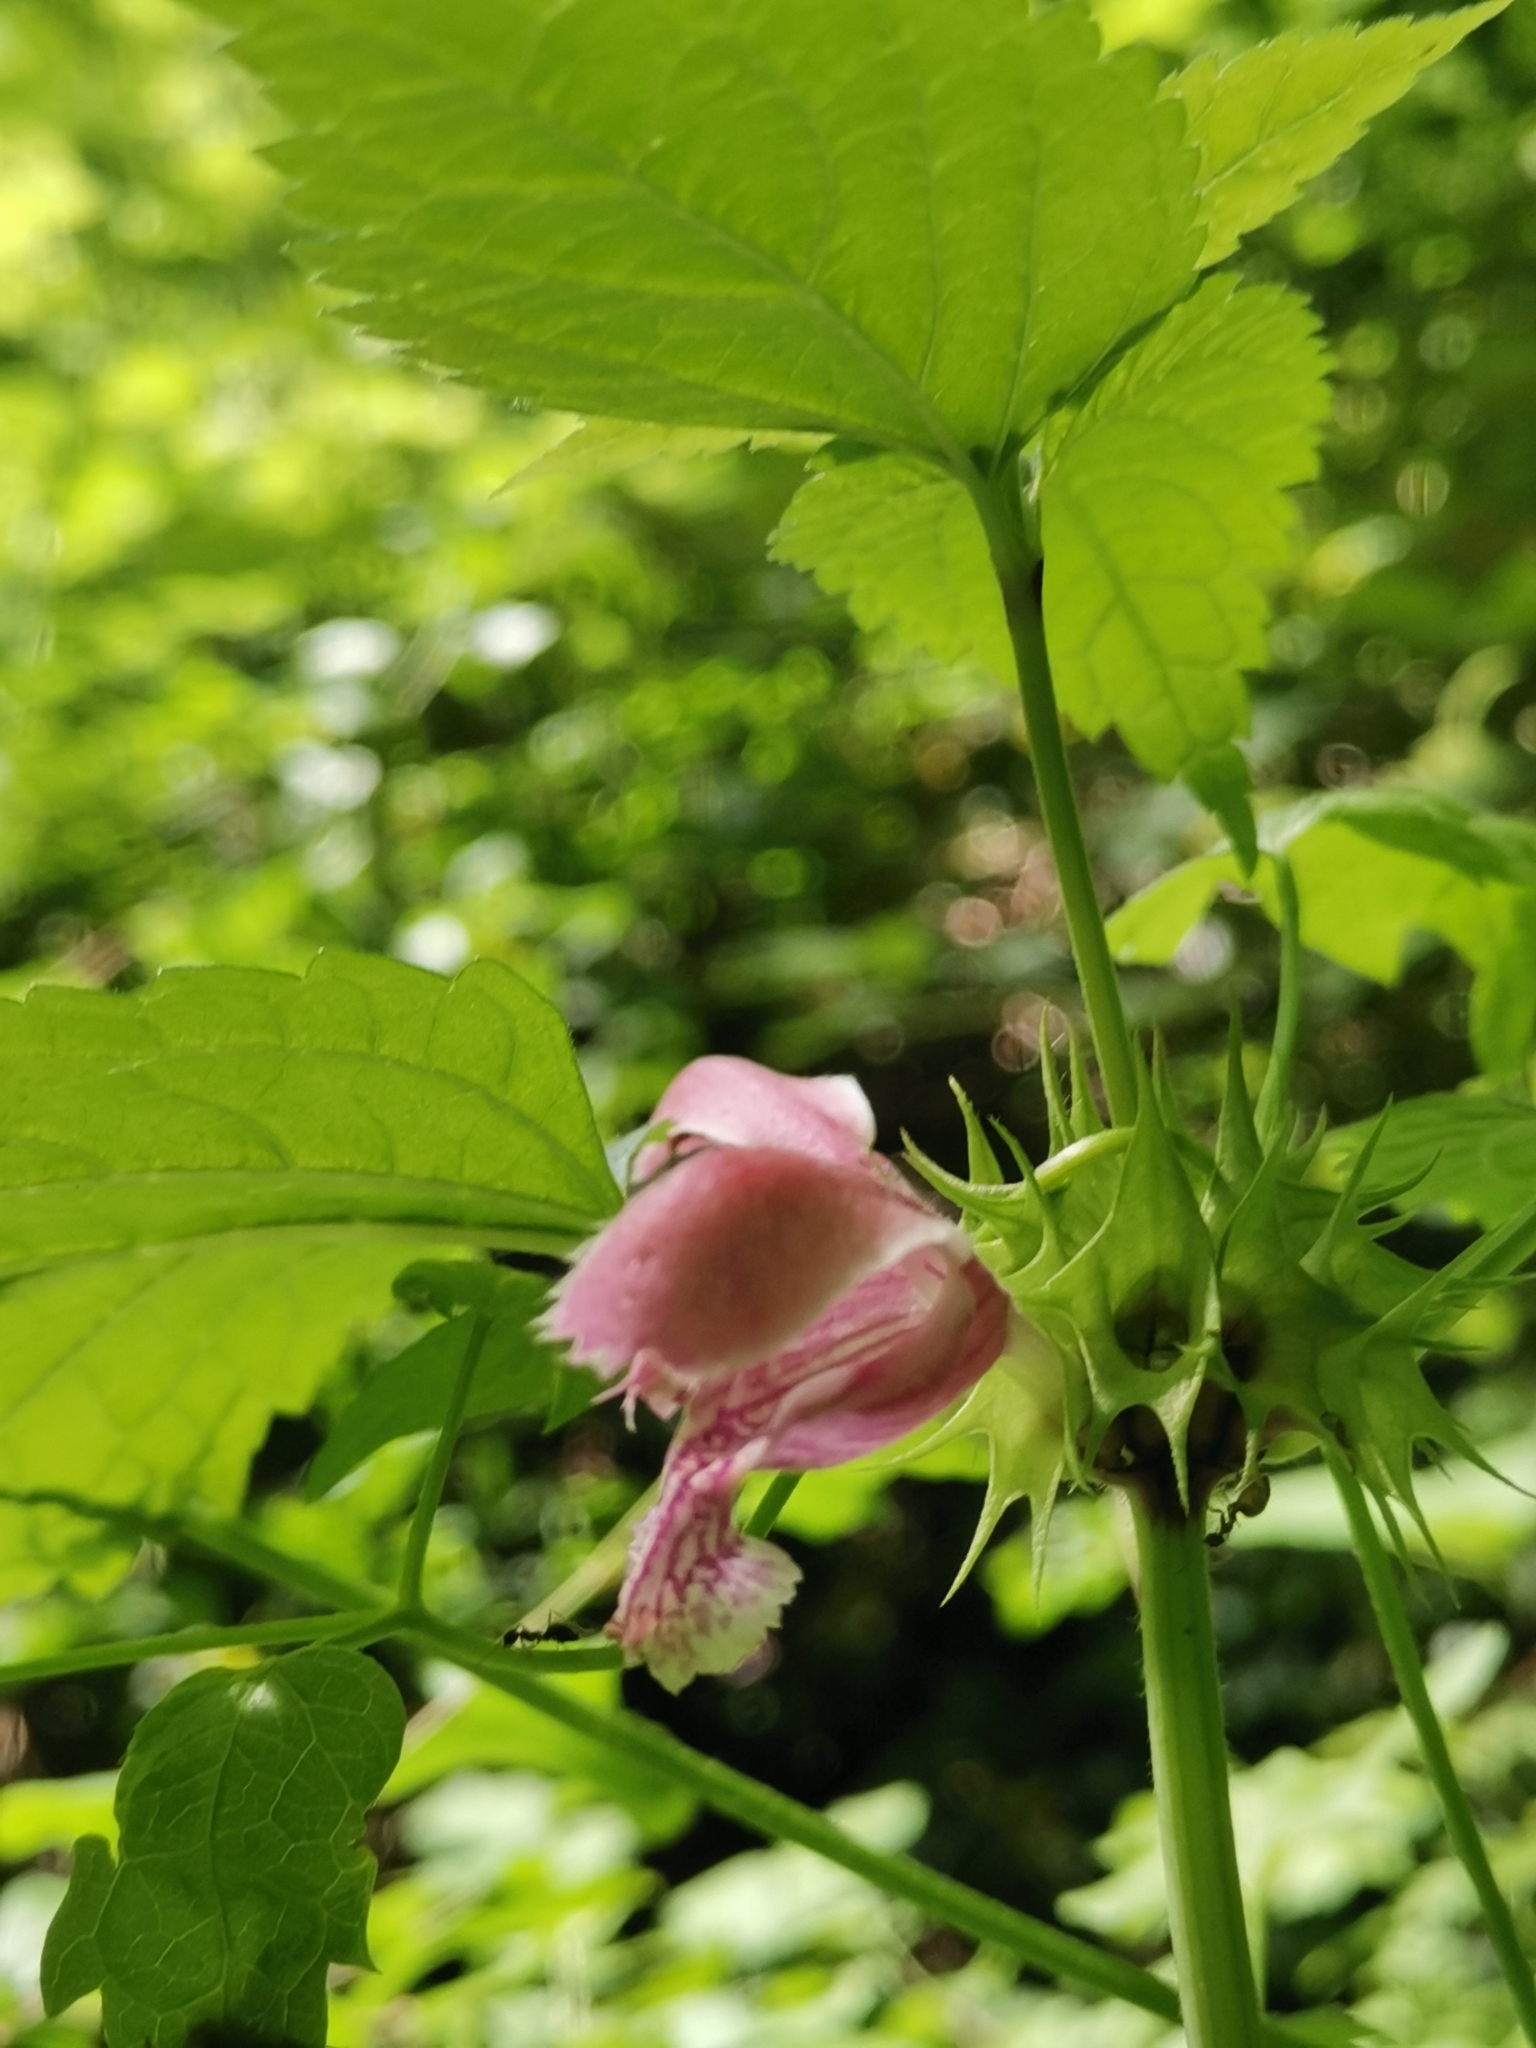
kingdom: Plantae
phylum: Tracheophyta
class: Magnoliopsida
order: Lamiales
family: Lamiaceae
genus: Lamium
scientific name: Lamium orvala
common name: Balm-leaved archangel
